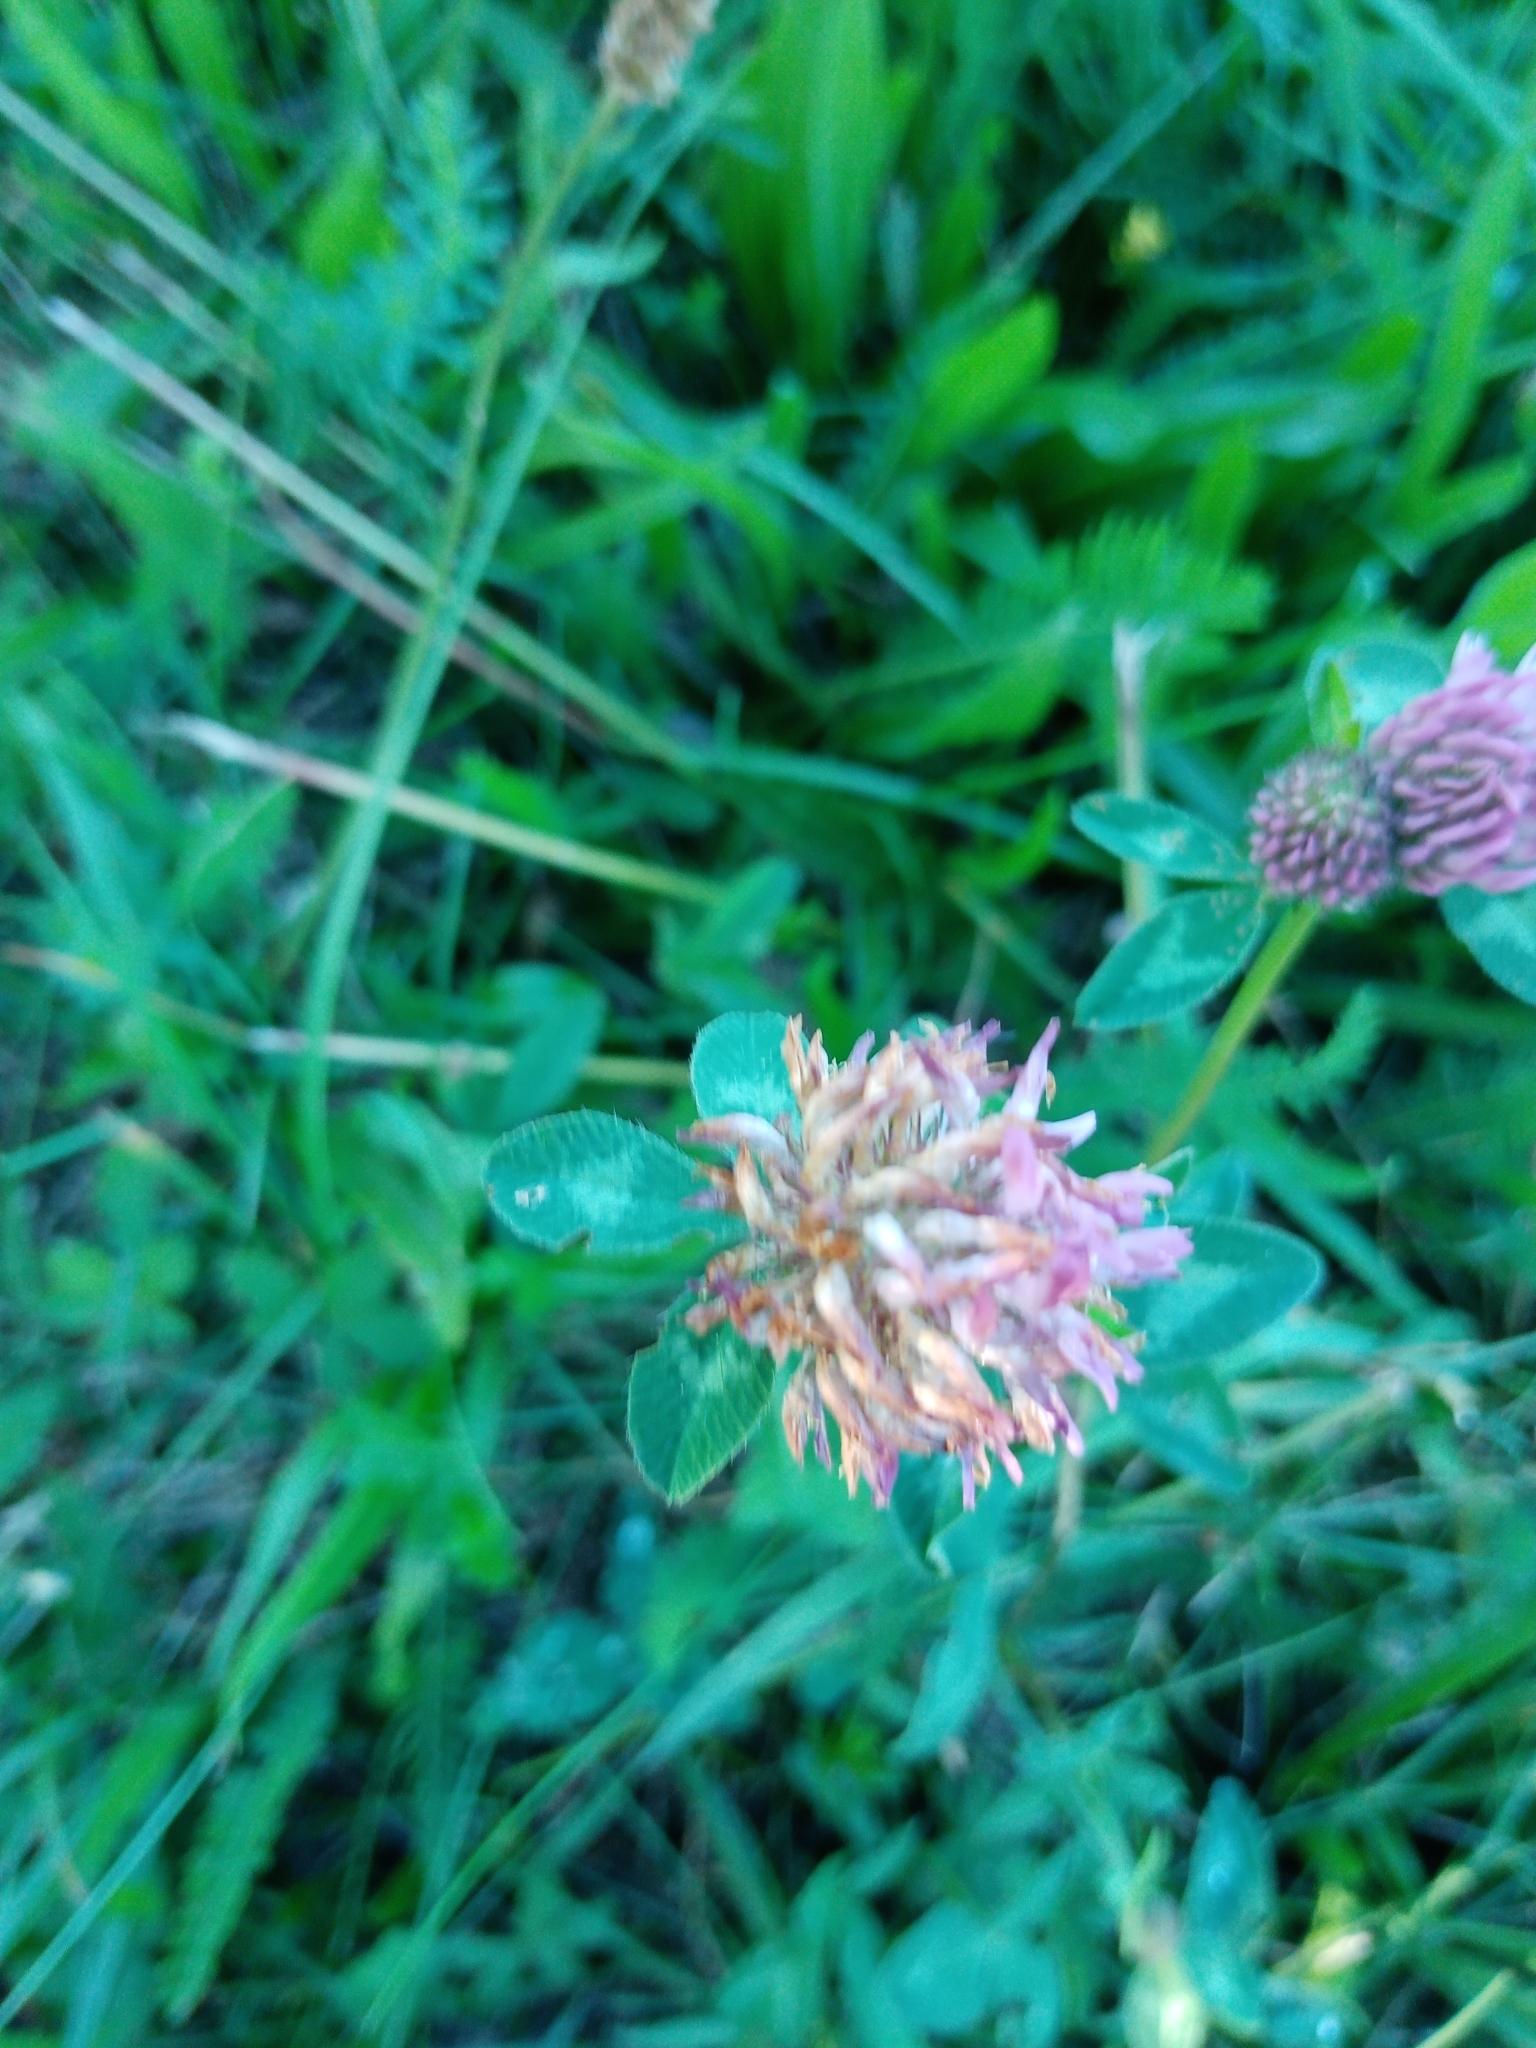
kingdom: Plantae
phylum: Tracheophyta
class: Magnoliopsida
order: Fabales
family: Fabaceae
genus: Trifolium
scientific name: Trifolium pratense
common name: Red clover
